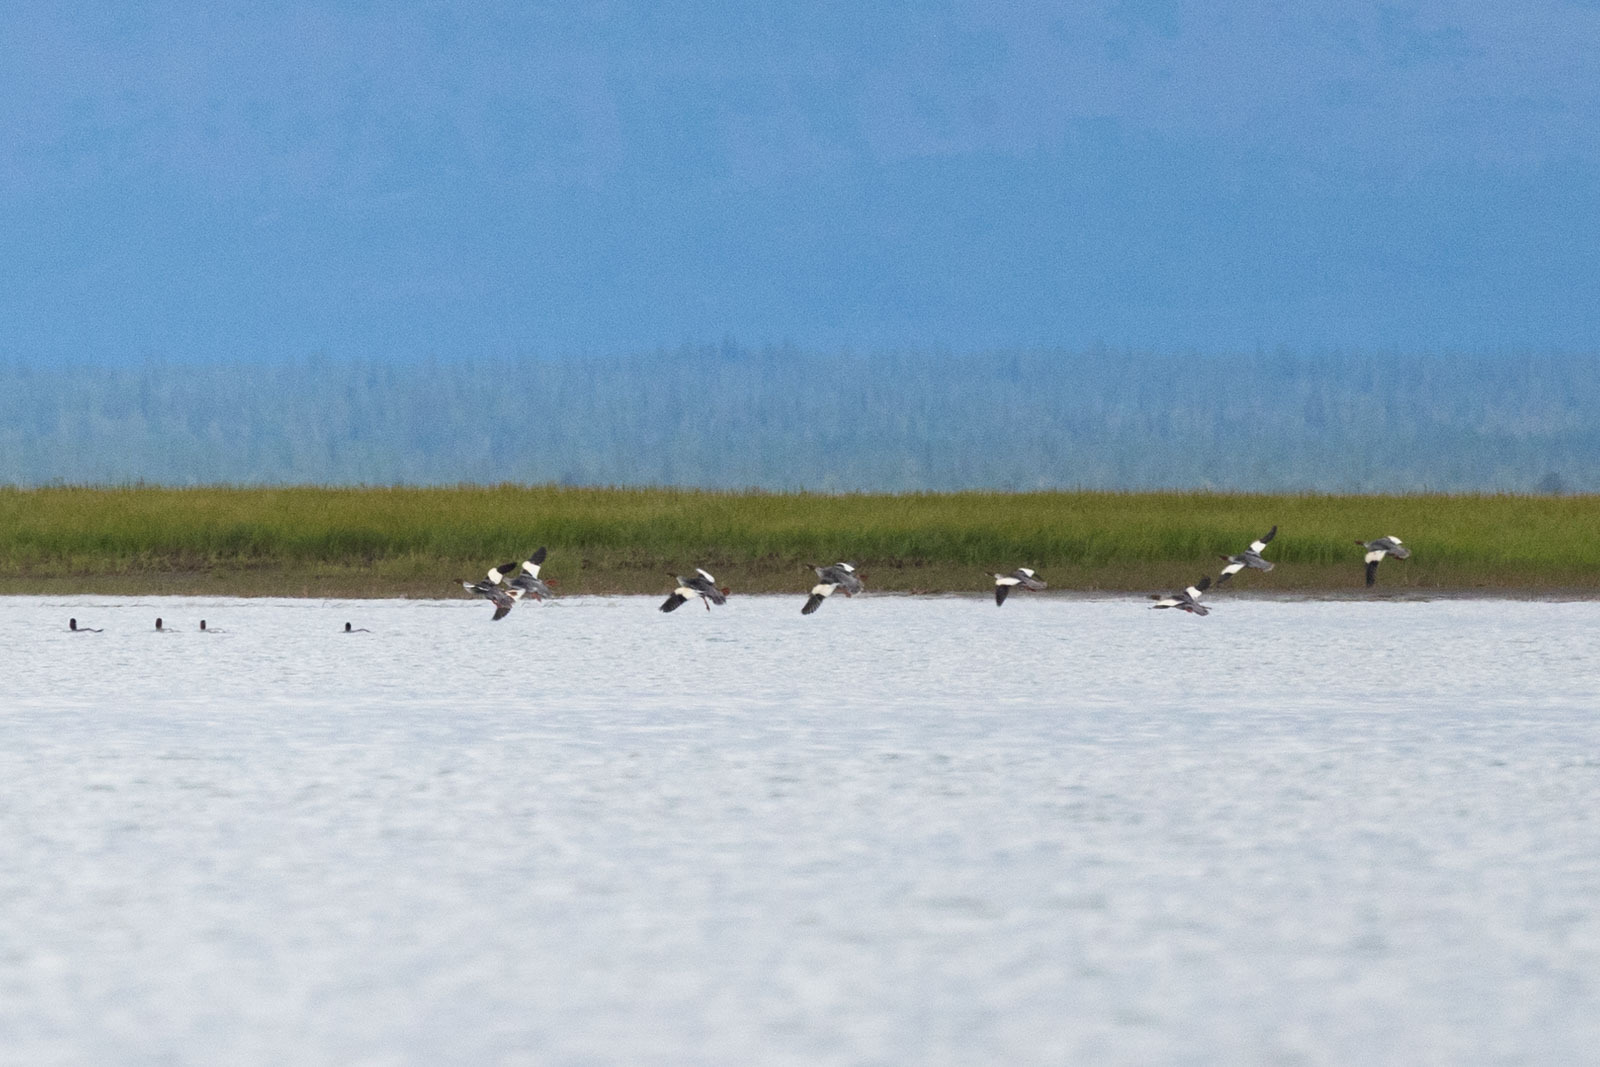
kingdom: Animalia
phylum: Chordata
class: Aves
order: Anseriformes
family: Anatidae
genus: Mergus
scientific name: Mergus merganser
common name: Common merganser
